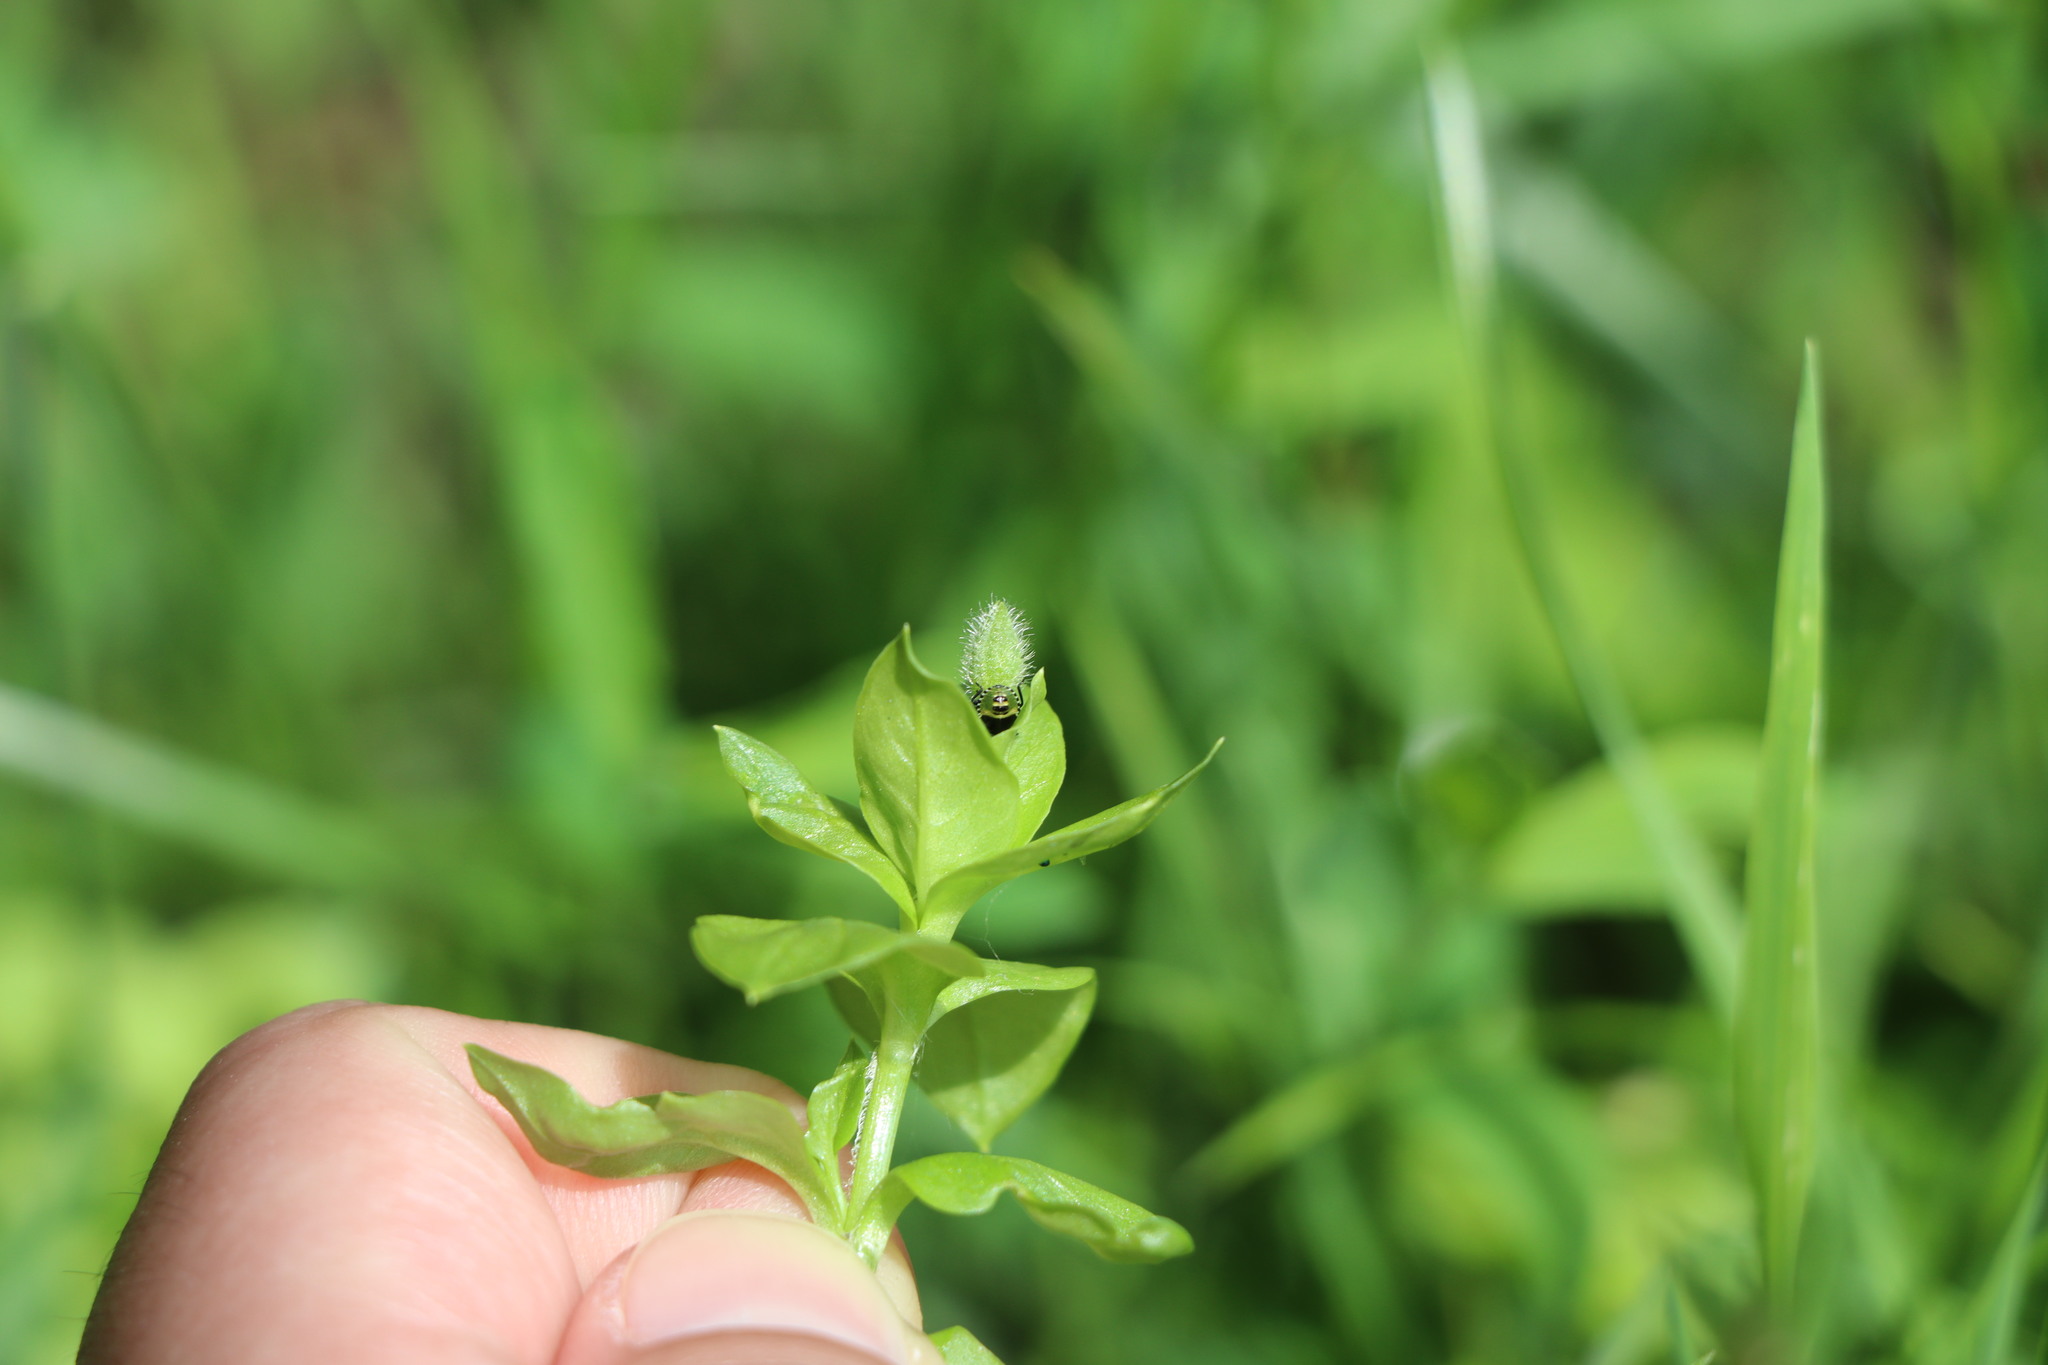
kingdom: Animalia
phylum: Arthropoda
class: Insecta
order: Hemiptera
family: Pentatomidae
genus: Palomena
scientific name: Palomena prasina
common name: Green shieldbug
